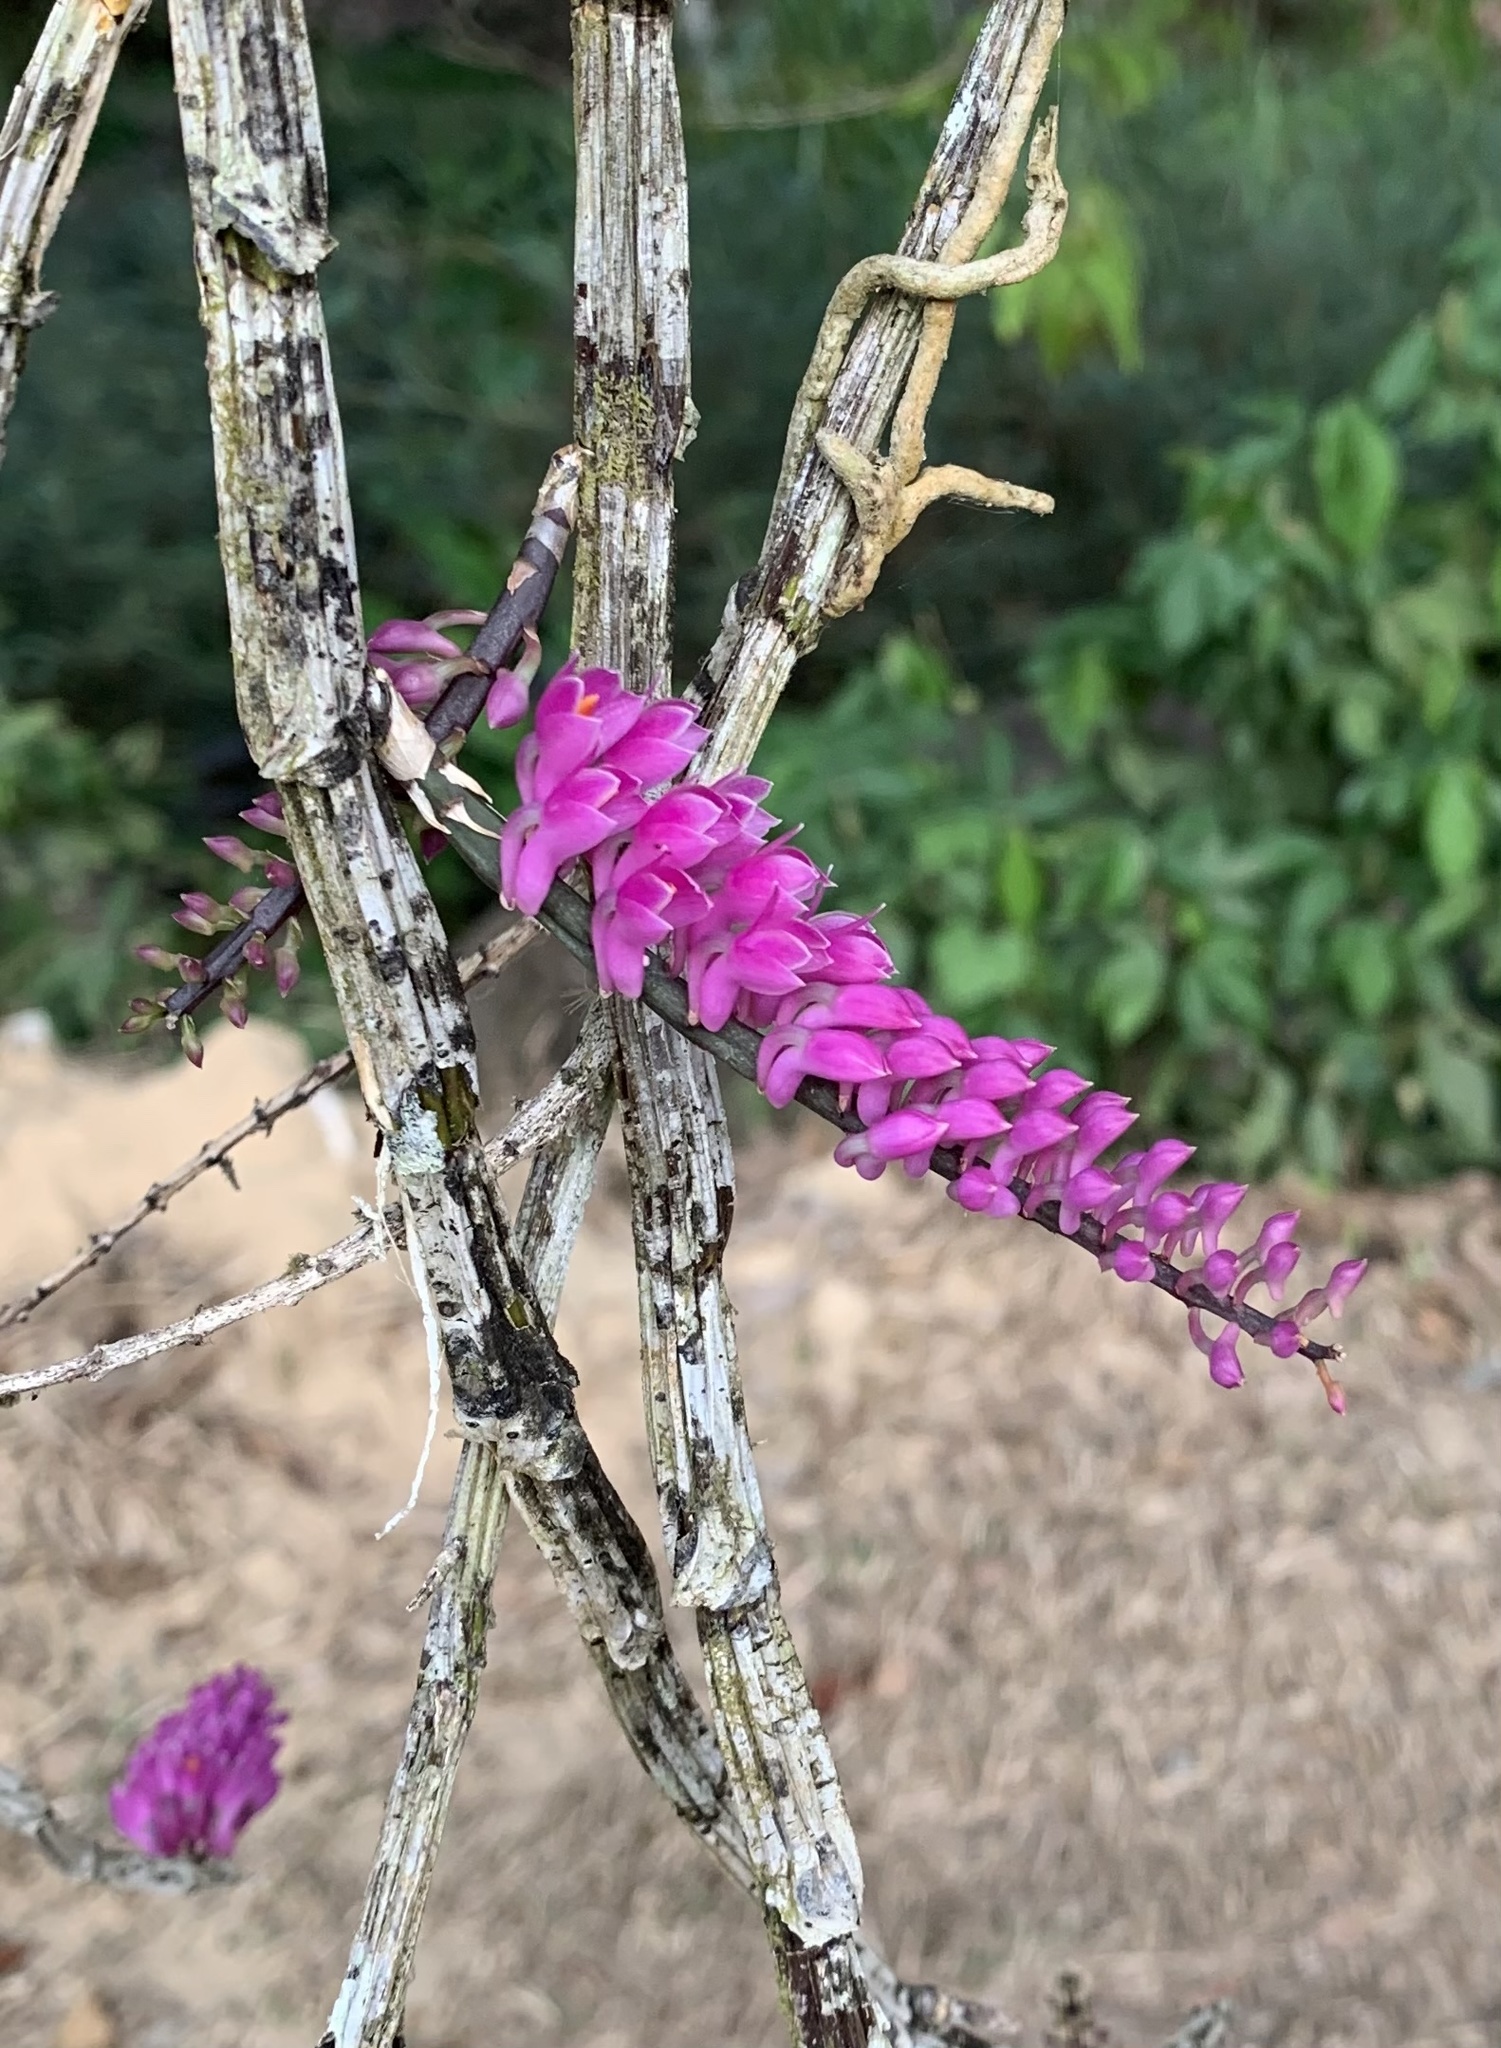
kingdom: Plantae
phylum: Tracheophyta
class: Liliopsida
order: Asparagales
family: Orchidaceae
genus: Dendrobium
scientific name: Dendrobium secundum
